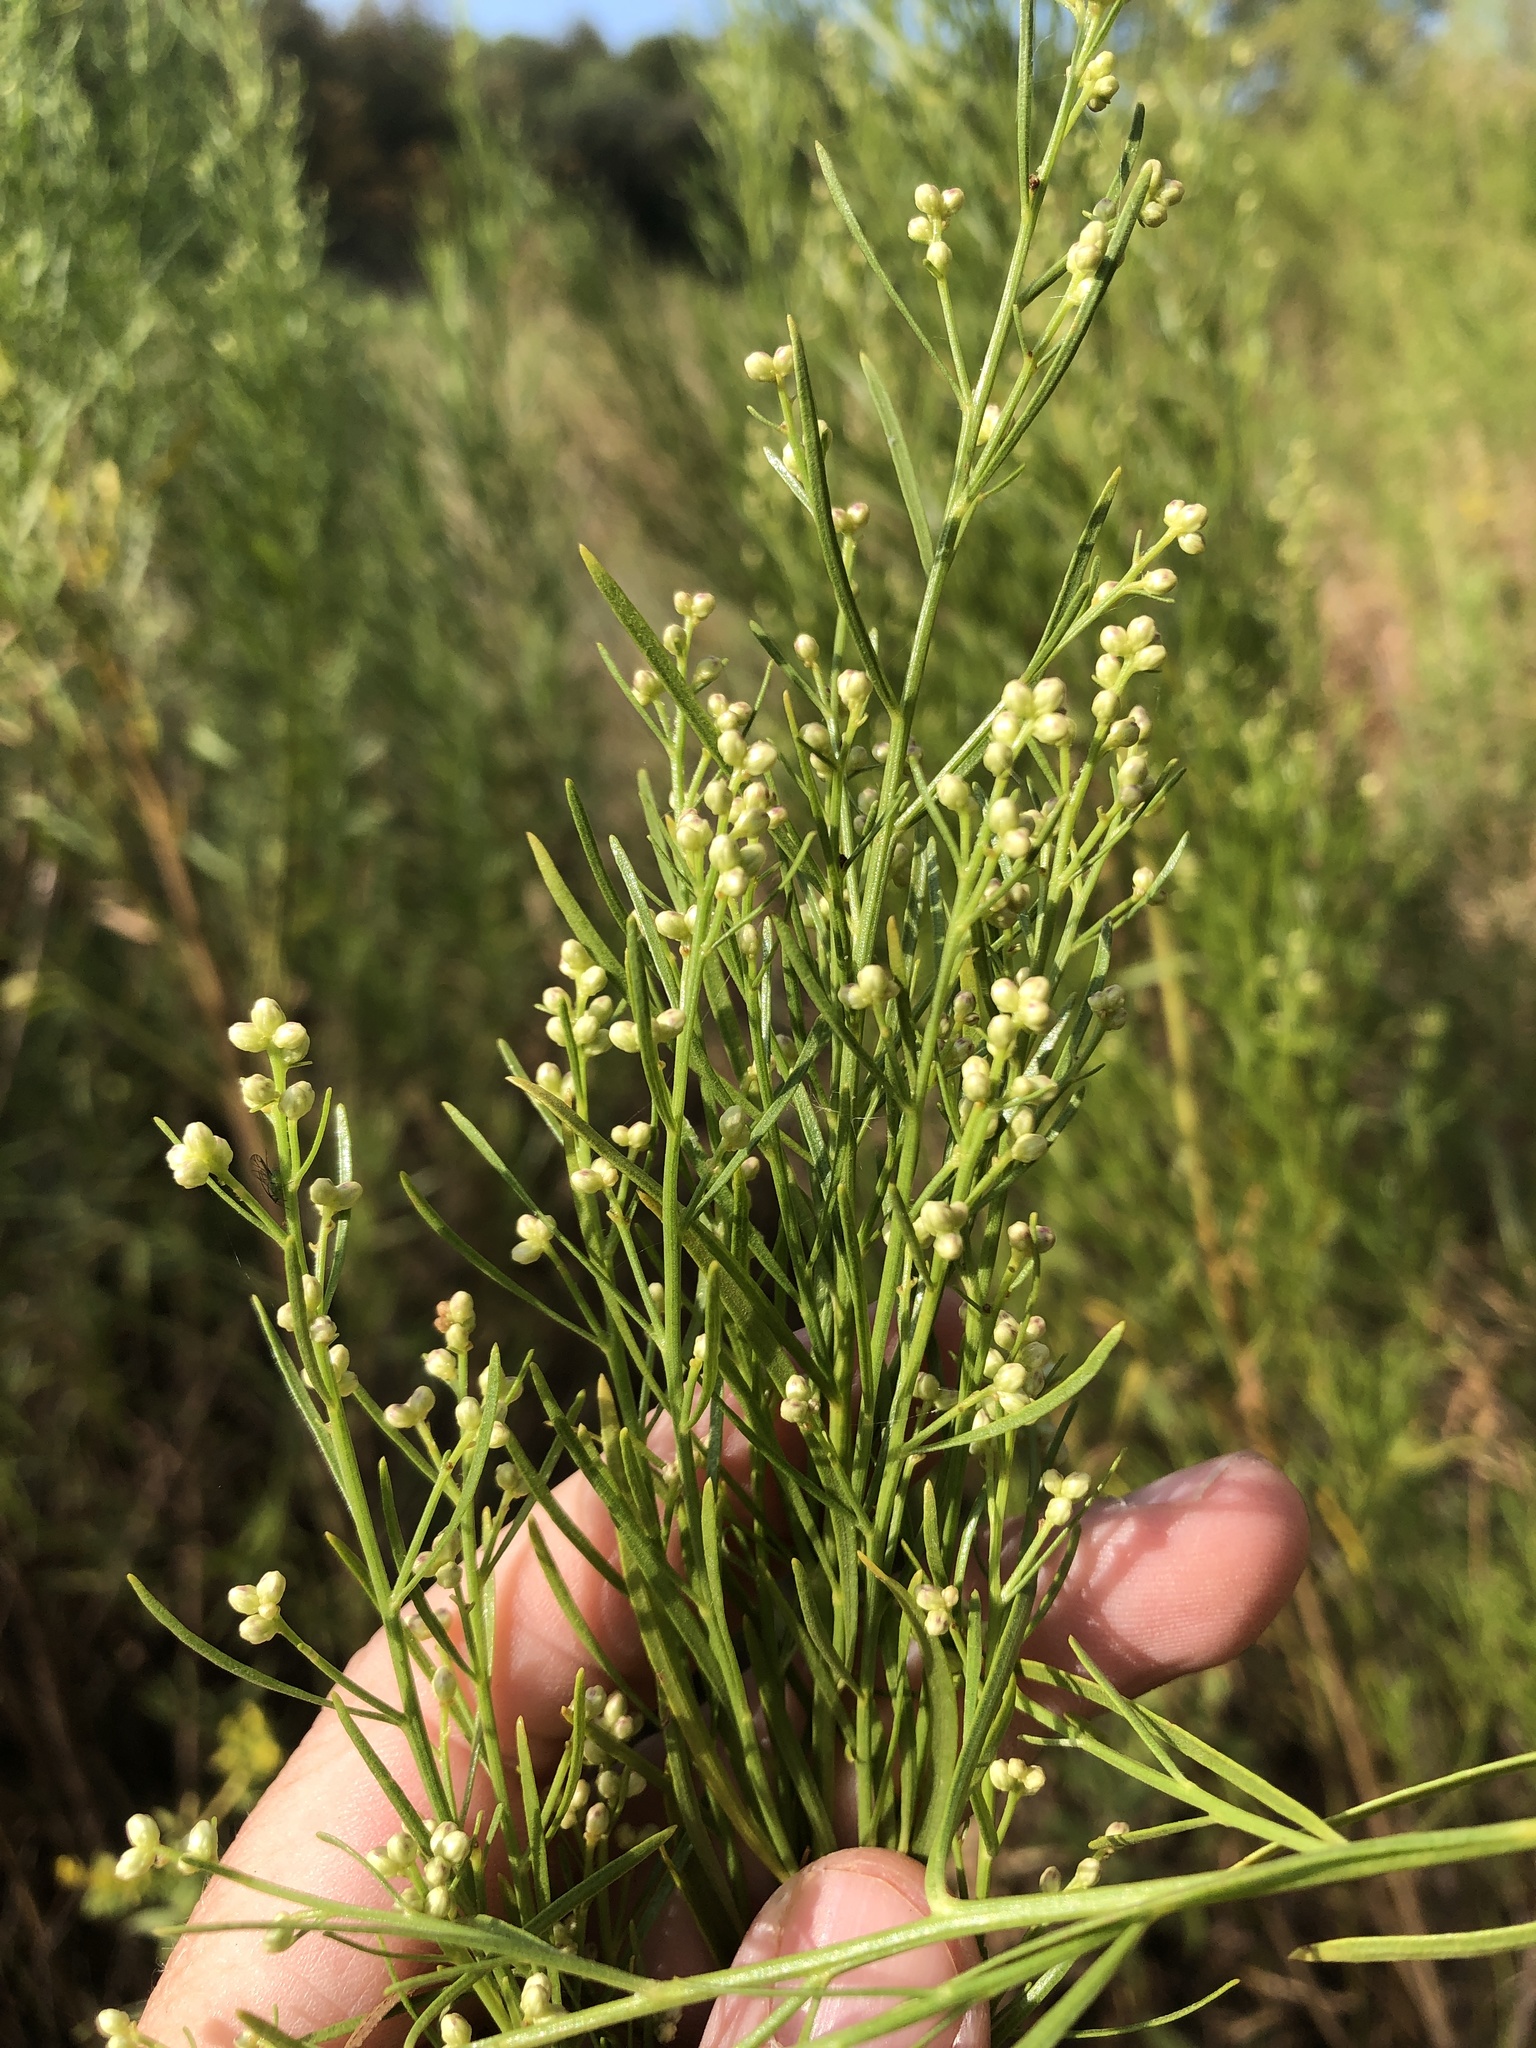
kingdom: Plantae
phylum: Tracheophyta
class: Magnoliopsida
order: Asterales
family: Asteraceae
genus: Baccharis
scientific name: Baccharis neglecta
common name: Roosevelt-weed
